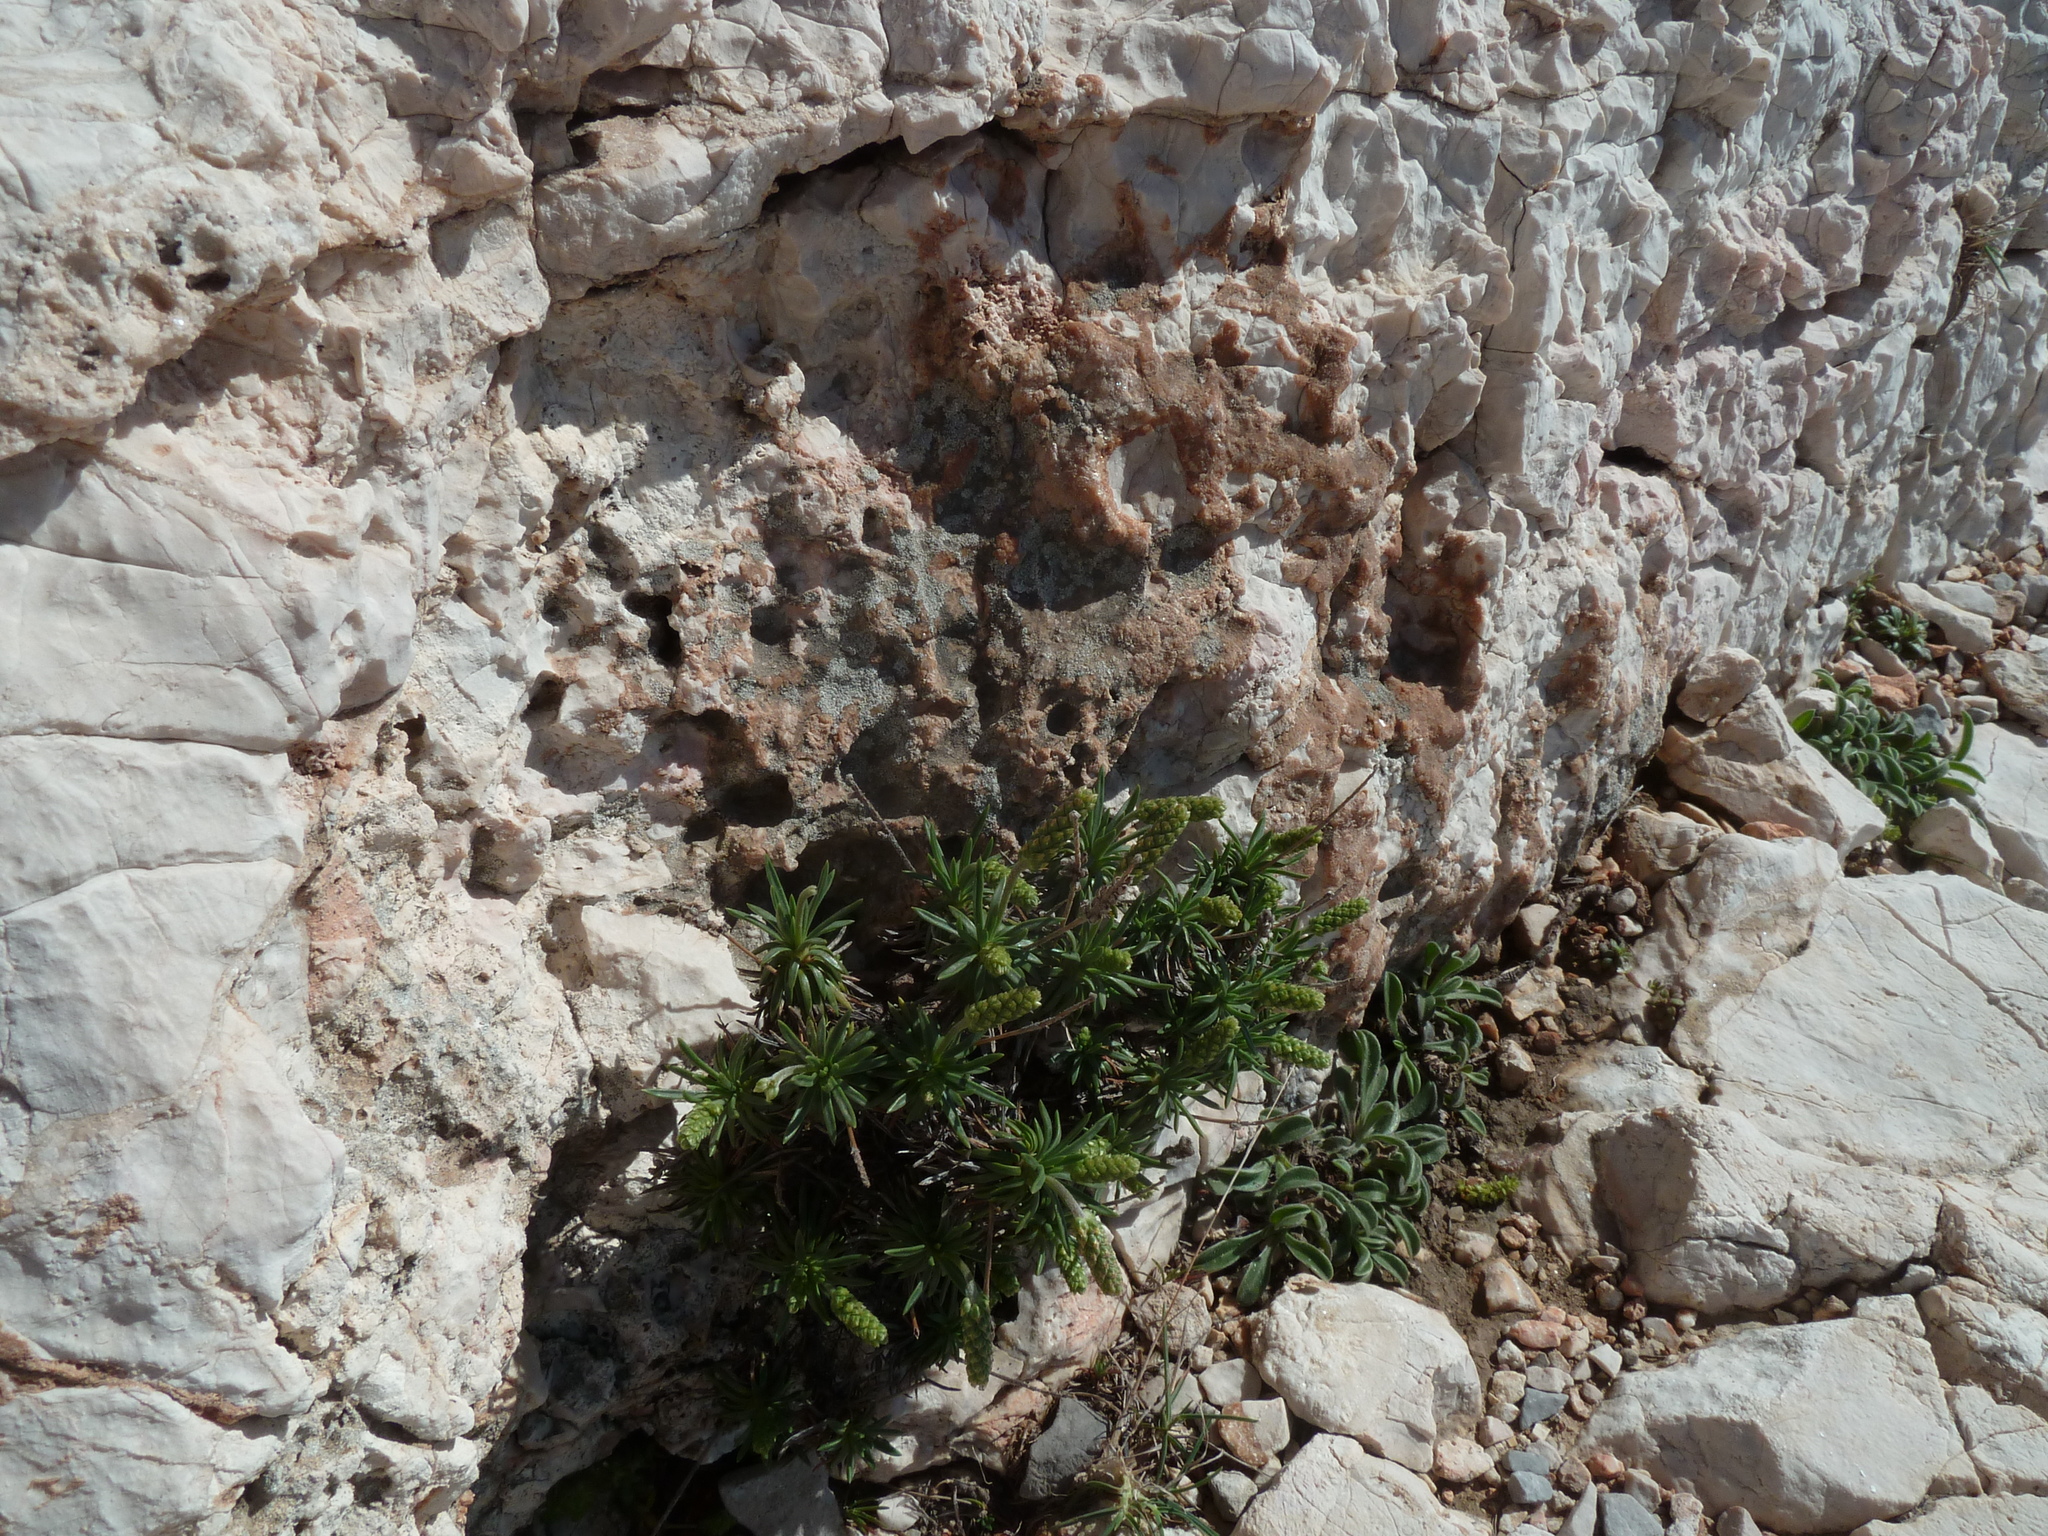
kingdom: Plantae
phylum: Tracheophyta
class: Magnoliopsida
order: Lamiales
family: Plantaginaceae
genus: Plantago
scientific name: Plantago subulata
